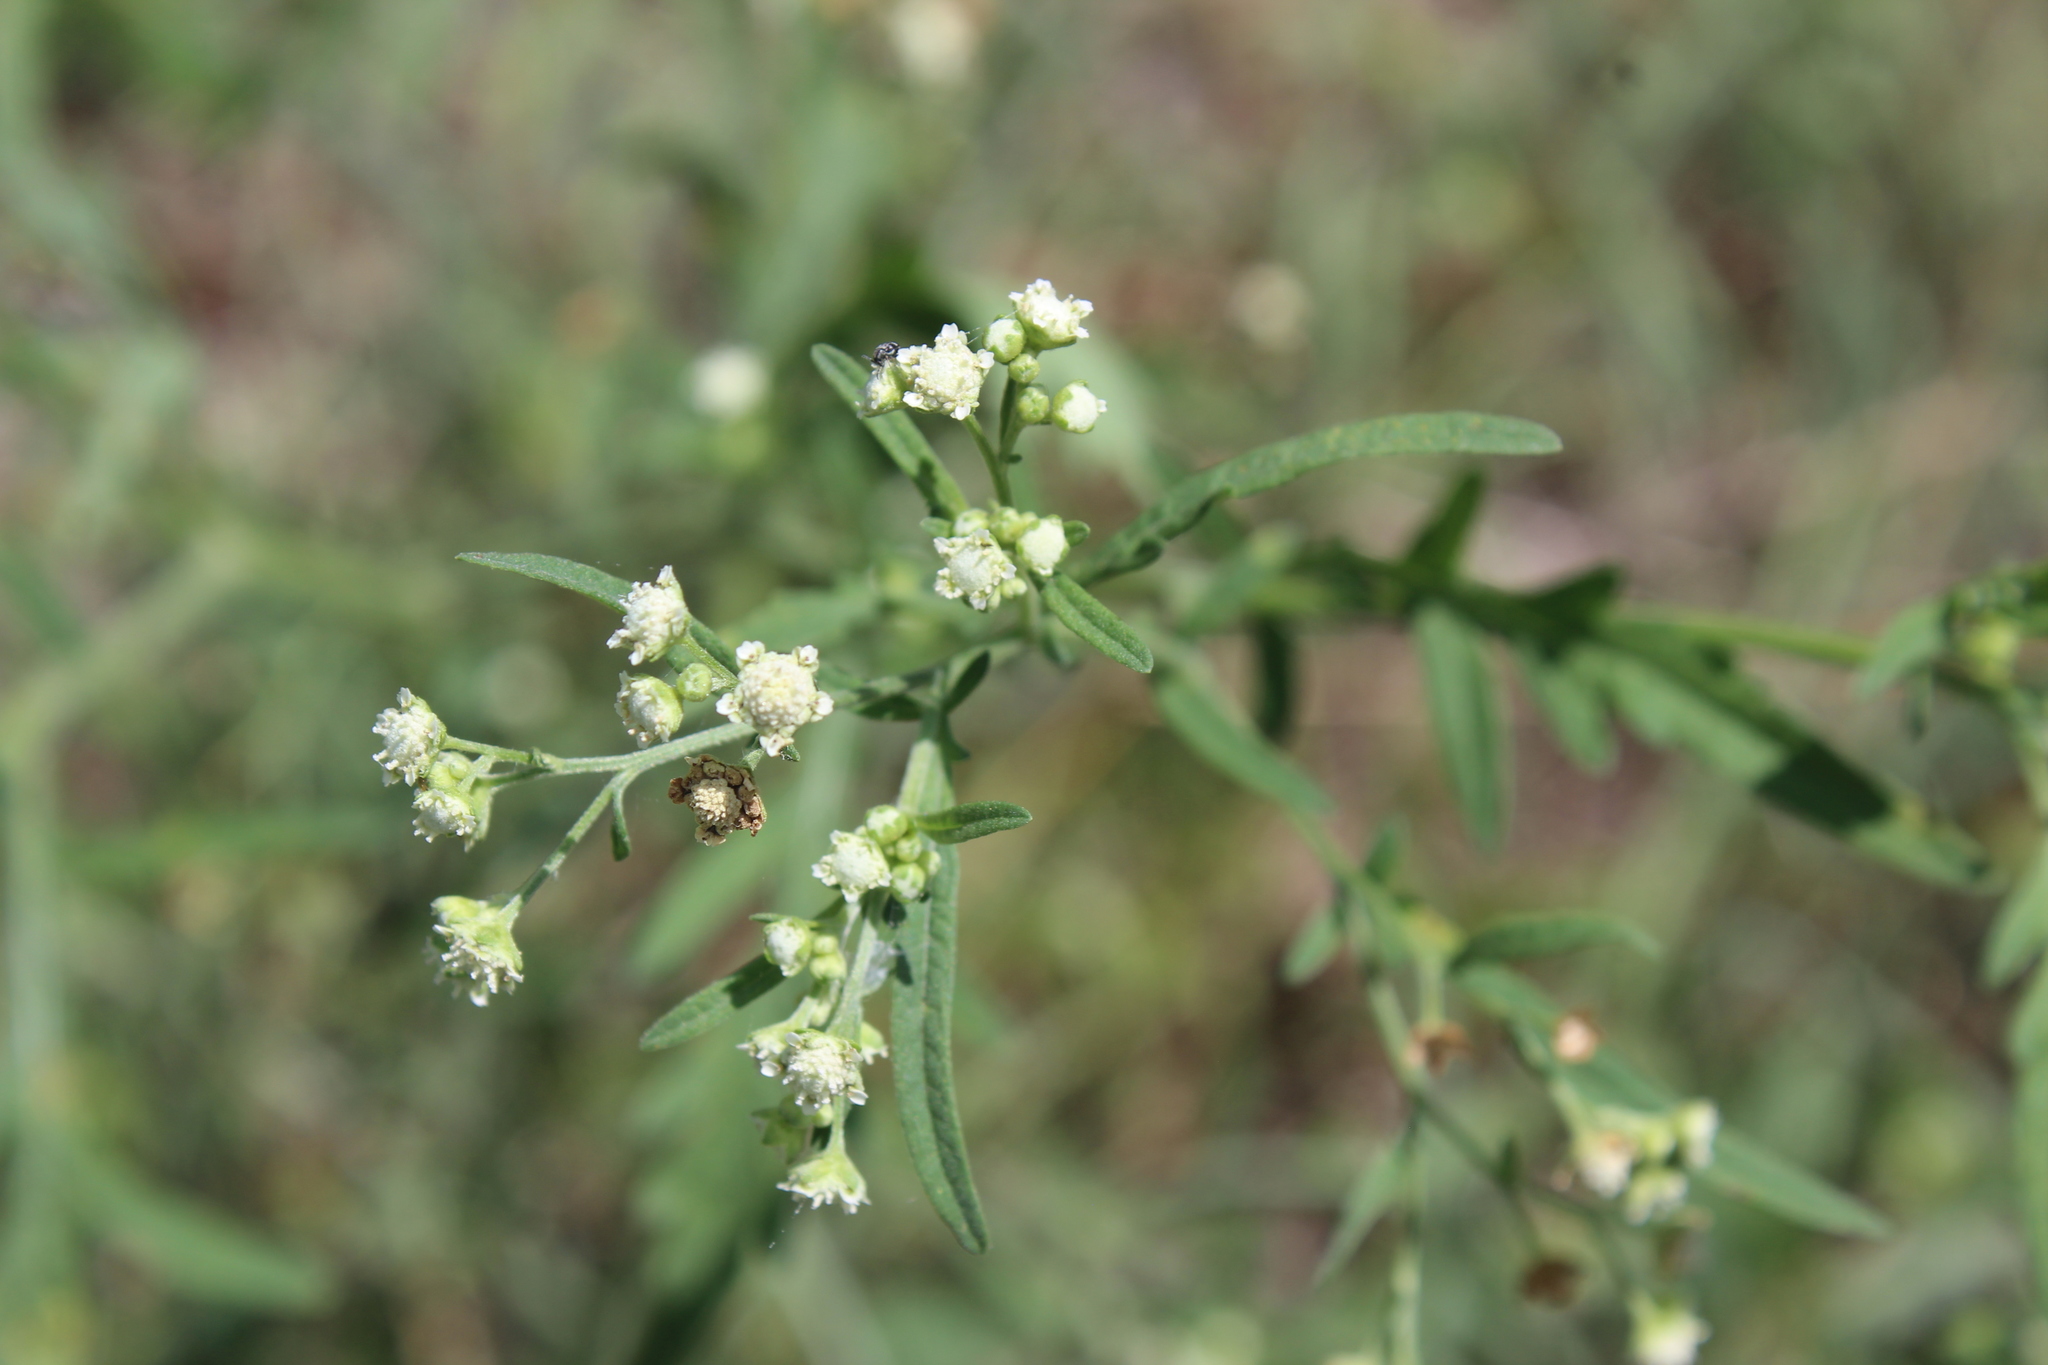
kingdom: Plantae
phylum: Tracheophyta
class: Magnoliopsida
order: Asterales
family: Asteraceae
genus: Parthenium
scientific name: Parthenium hysterophorus
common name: Santa maria feverfew
